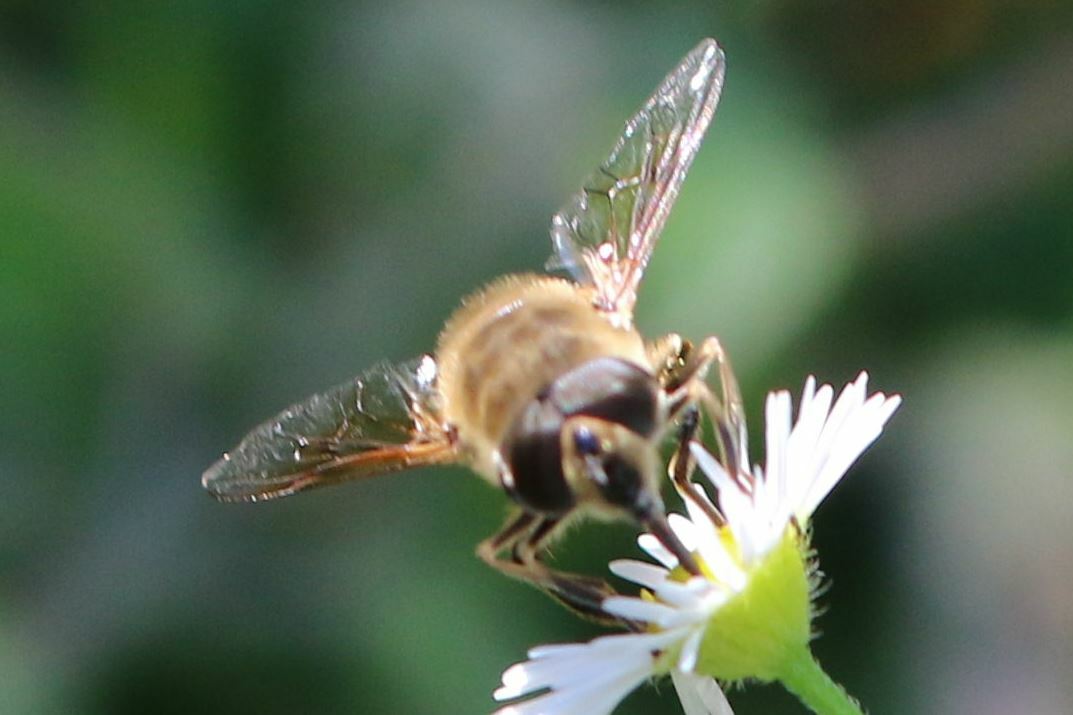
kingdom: Animalia
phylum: Arthropoda
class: Insecta
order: Diptera
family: Syrphidae
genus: Eristalis
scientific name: Eristalis tenax
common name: Drone fly
